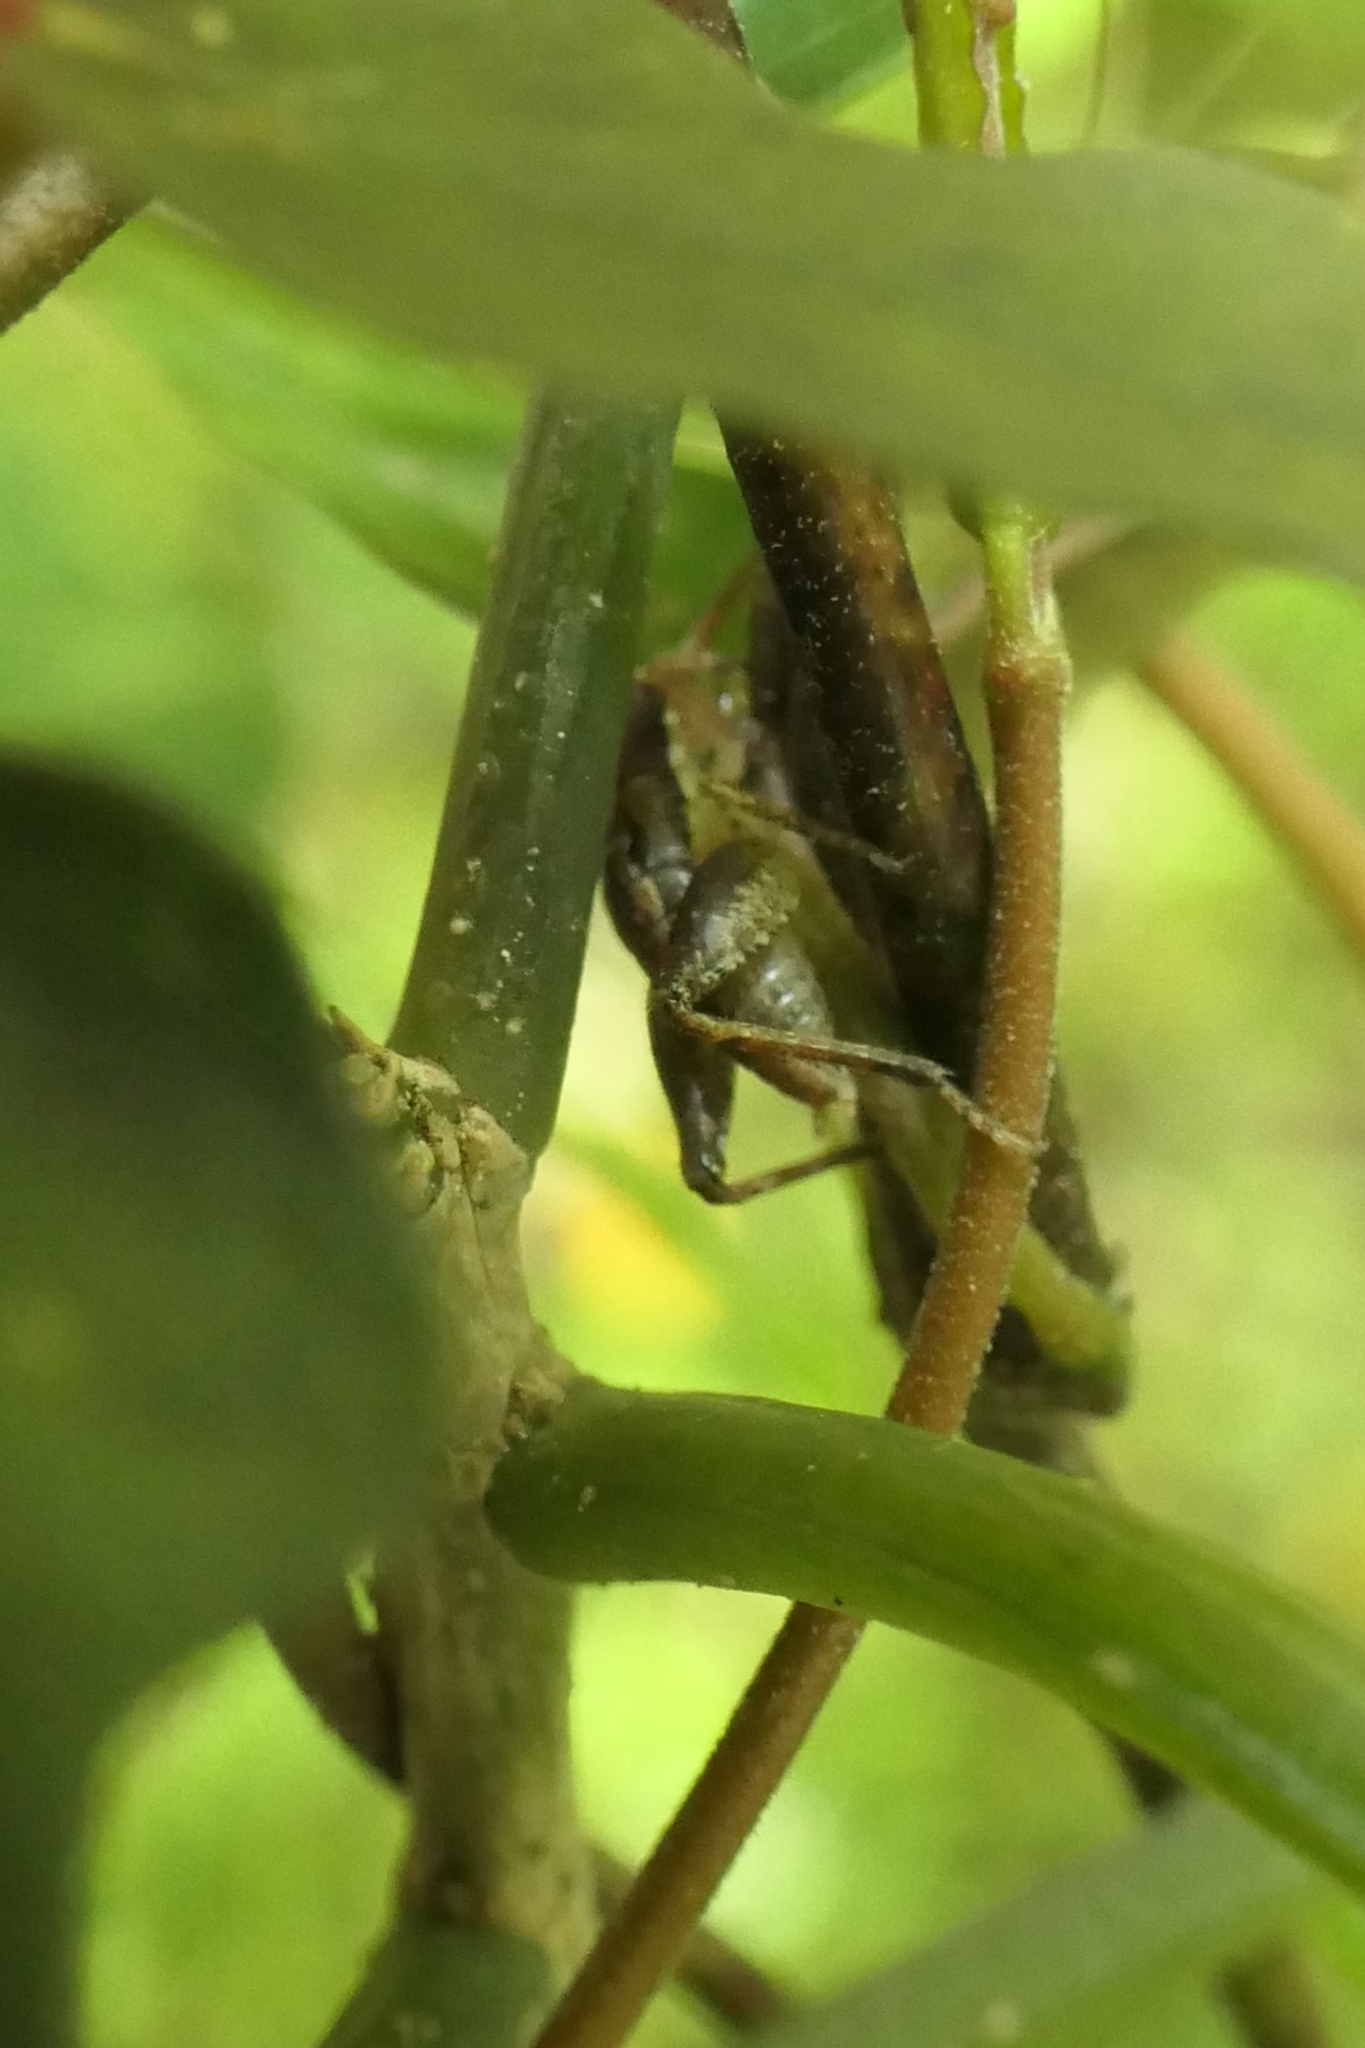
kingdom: Animalia
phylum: Arthropoda
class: Insecta
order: Orthoptera
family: Rhaphidophoridae
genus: Isoplectron
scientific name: Isoplectron armatum
